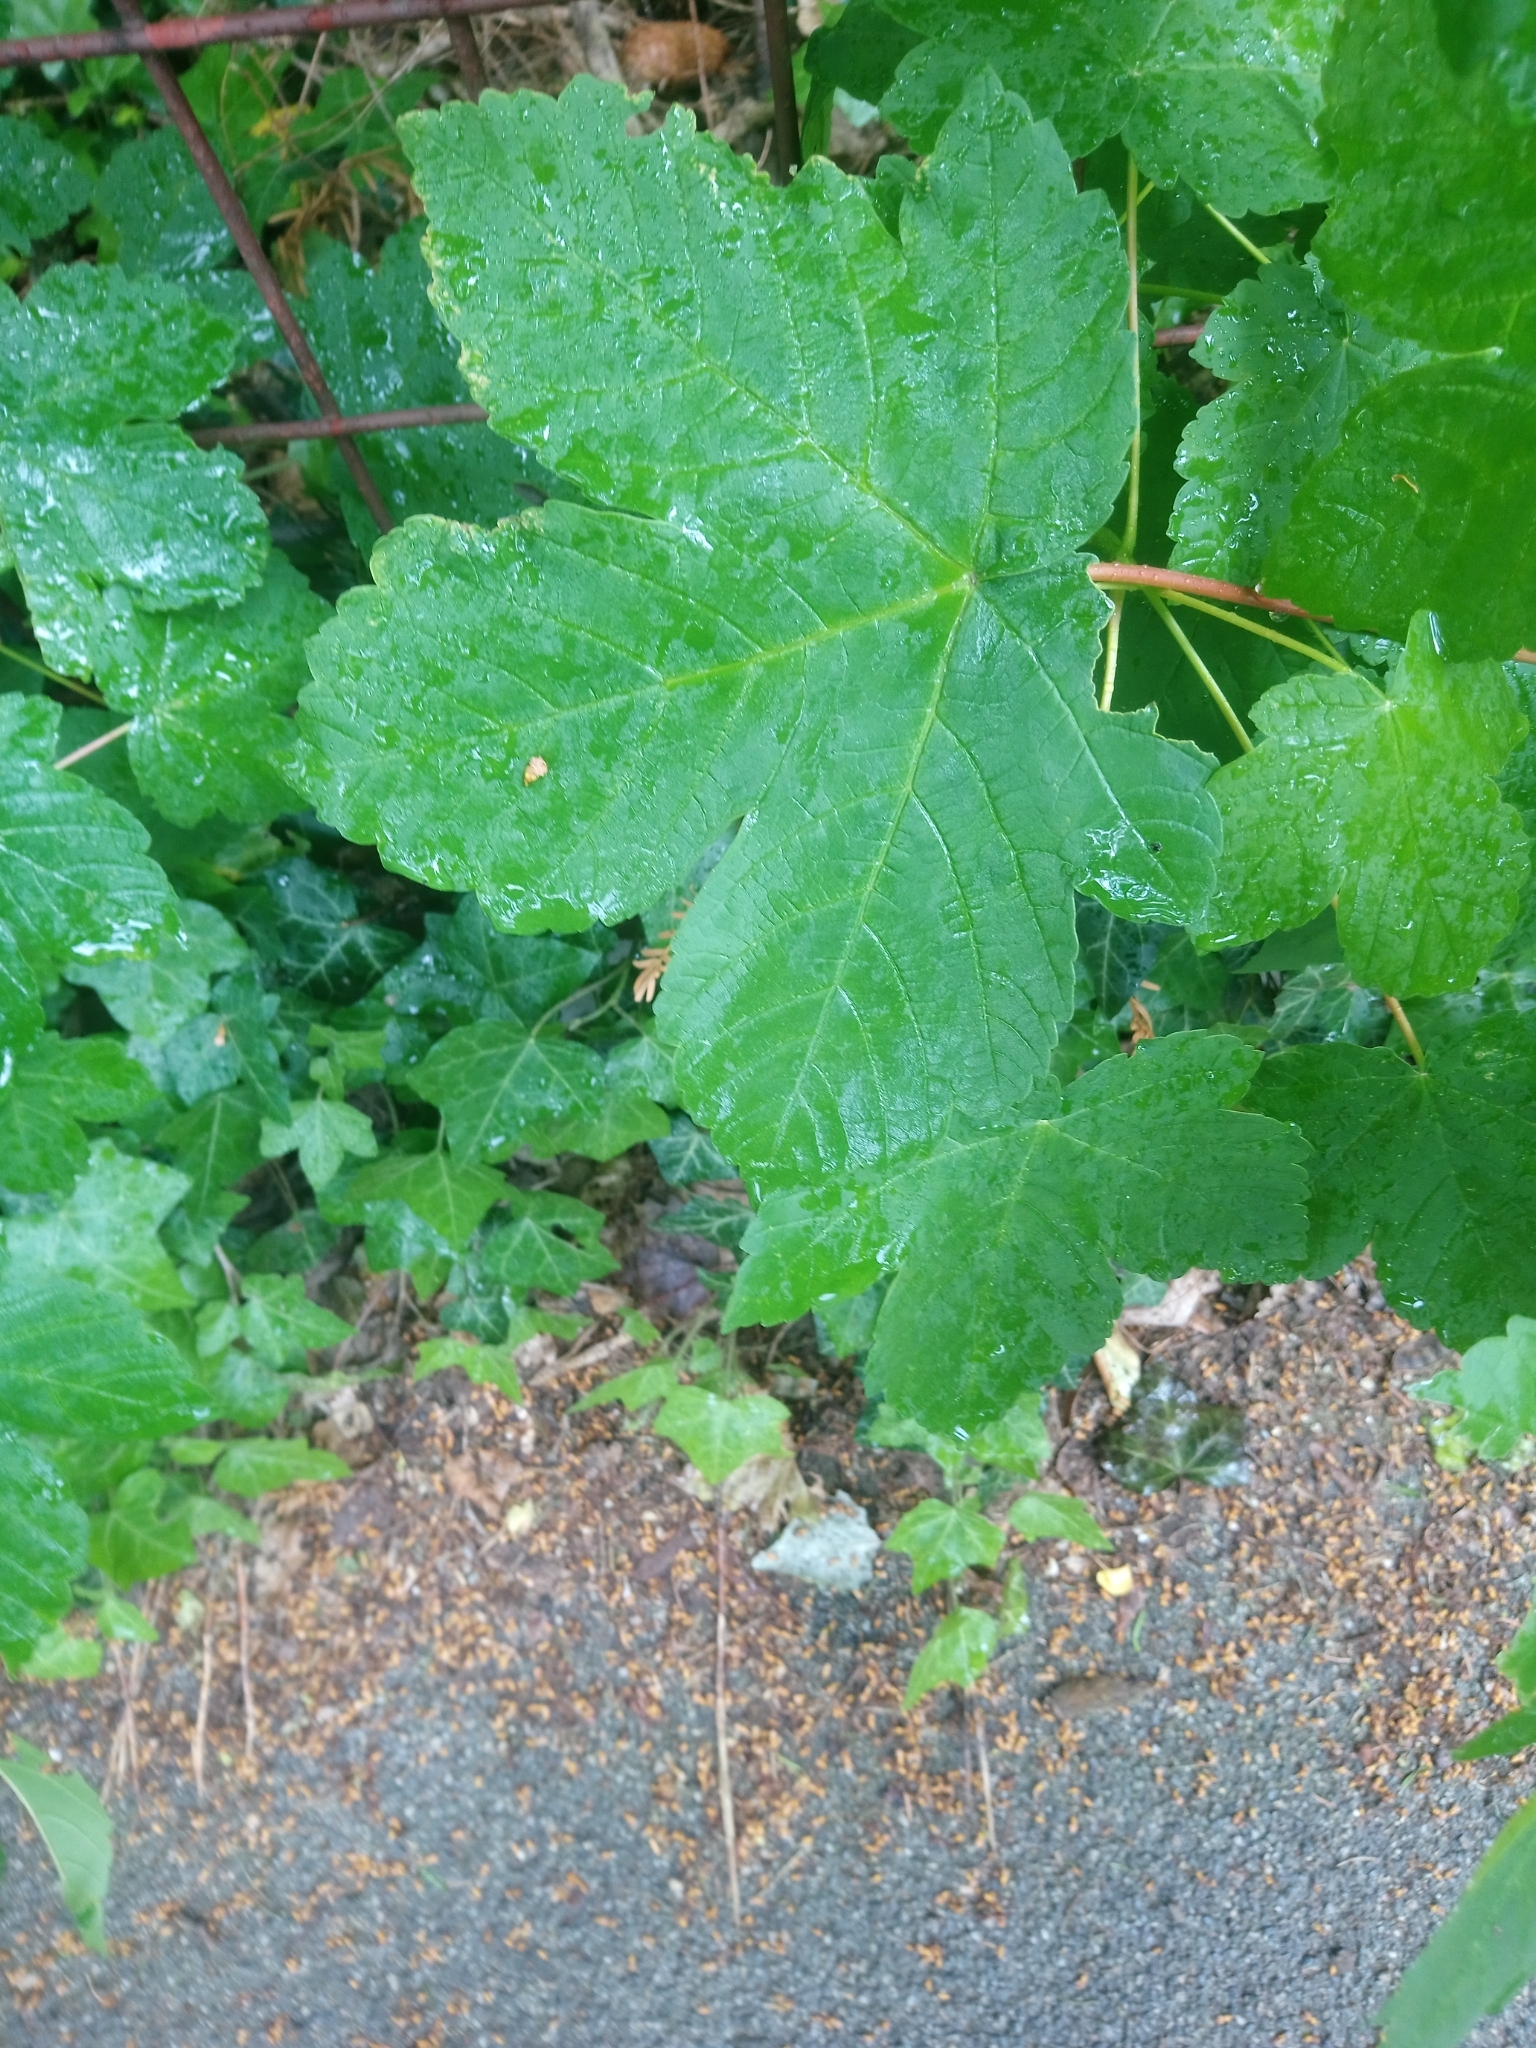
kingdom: Plantae
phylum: Tracheophyta
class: Magnoliopsida
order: Sapindales
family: Sapindaceae
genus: Acer
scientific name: Acer pseudoplatanus
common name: Sycamore
